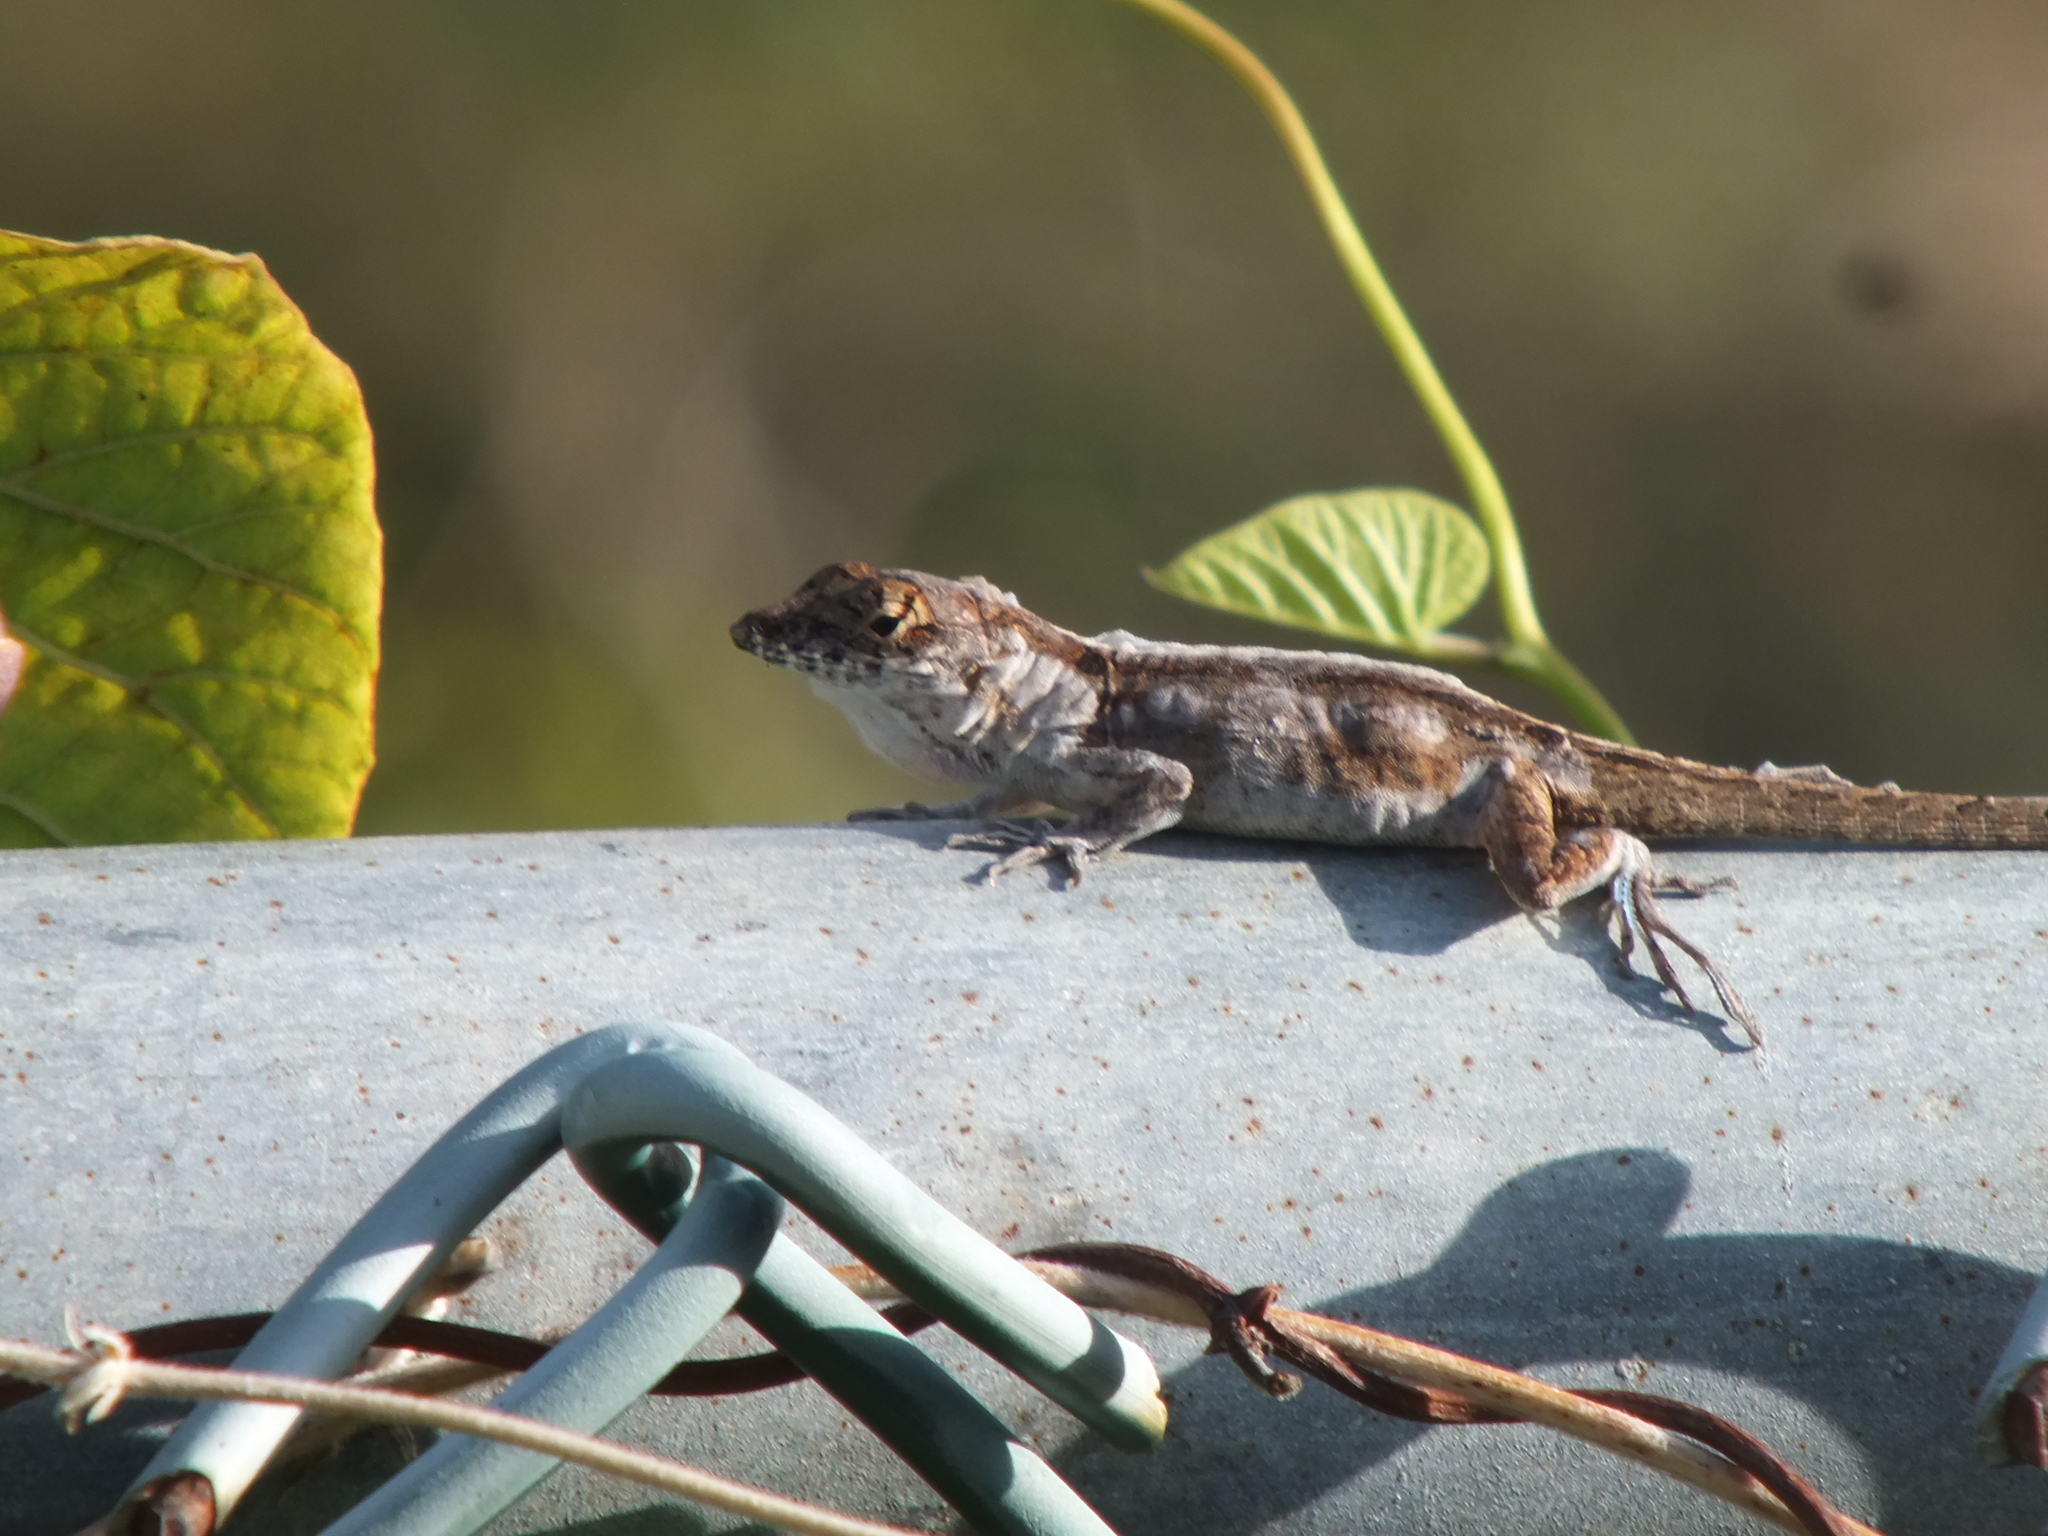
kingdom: Animalia
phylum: Chordata
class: Squamata
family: Dactyloidae
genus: Anolis
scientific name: Anolis sagrei
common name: Brown anole
